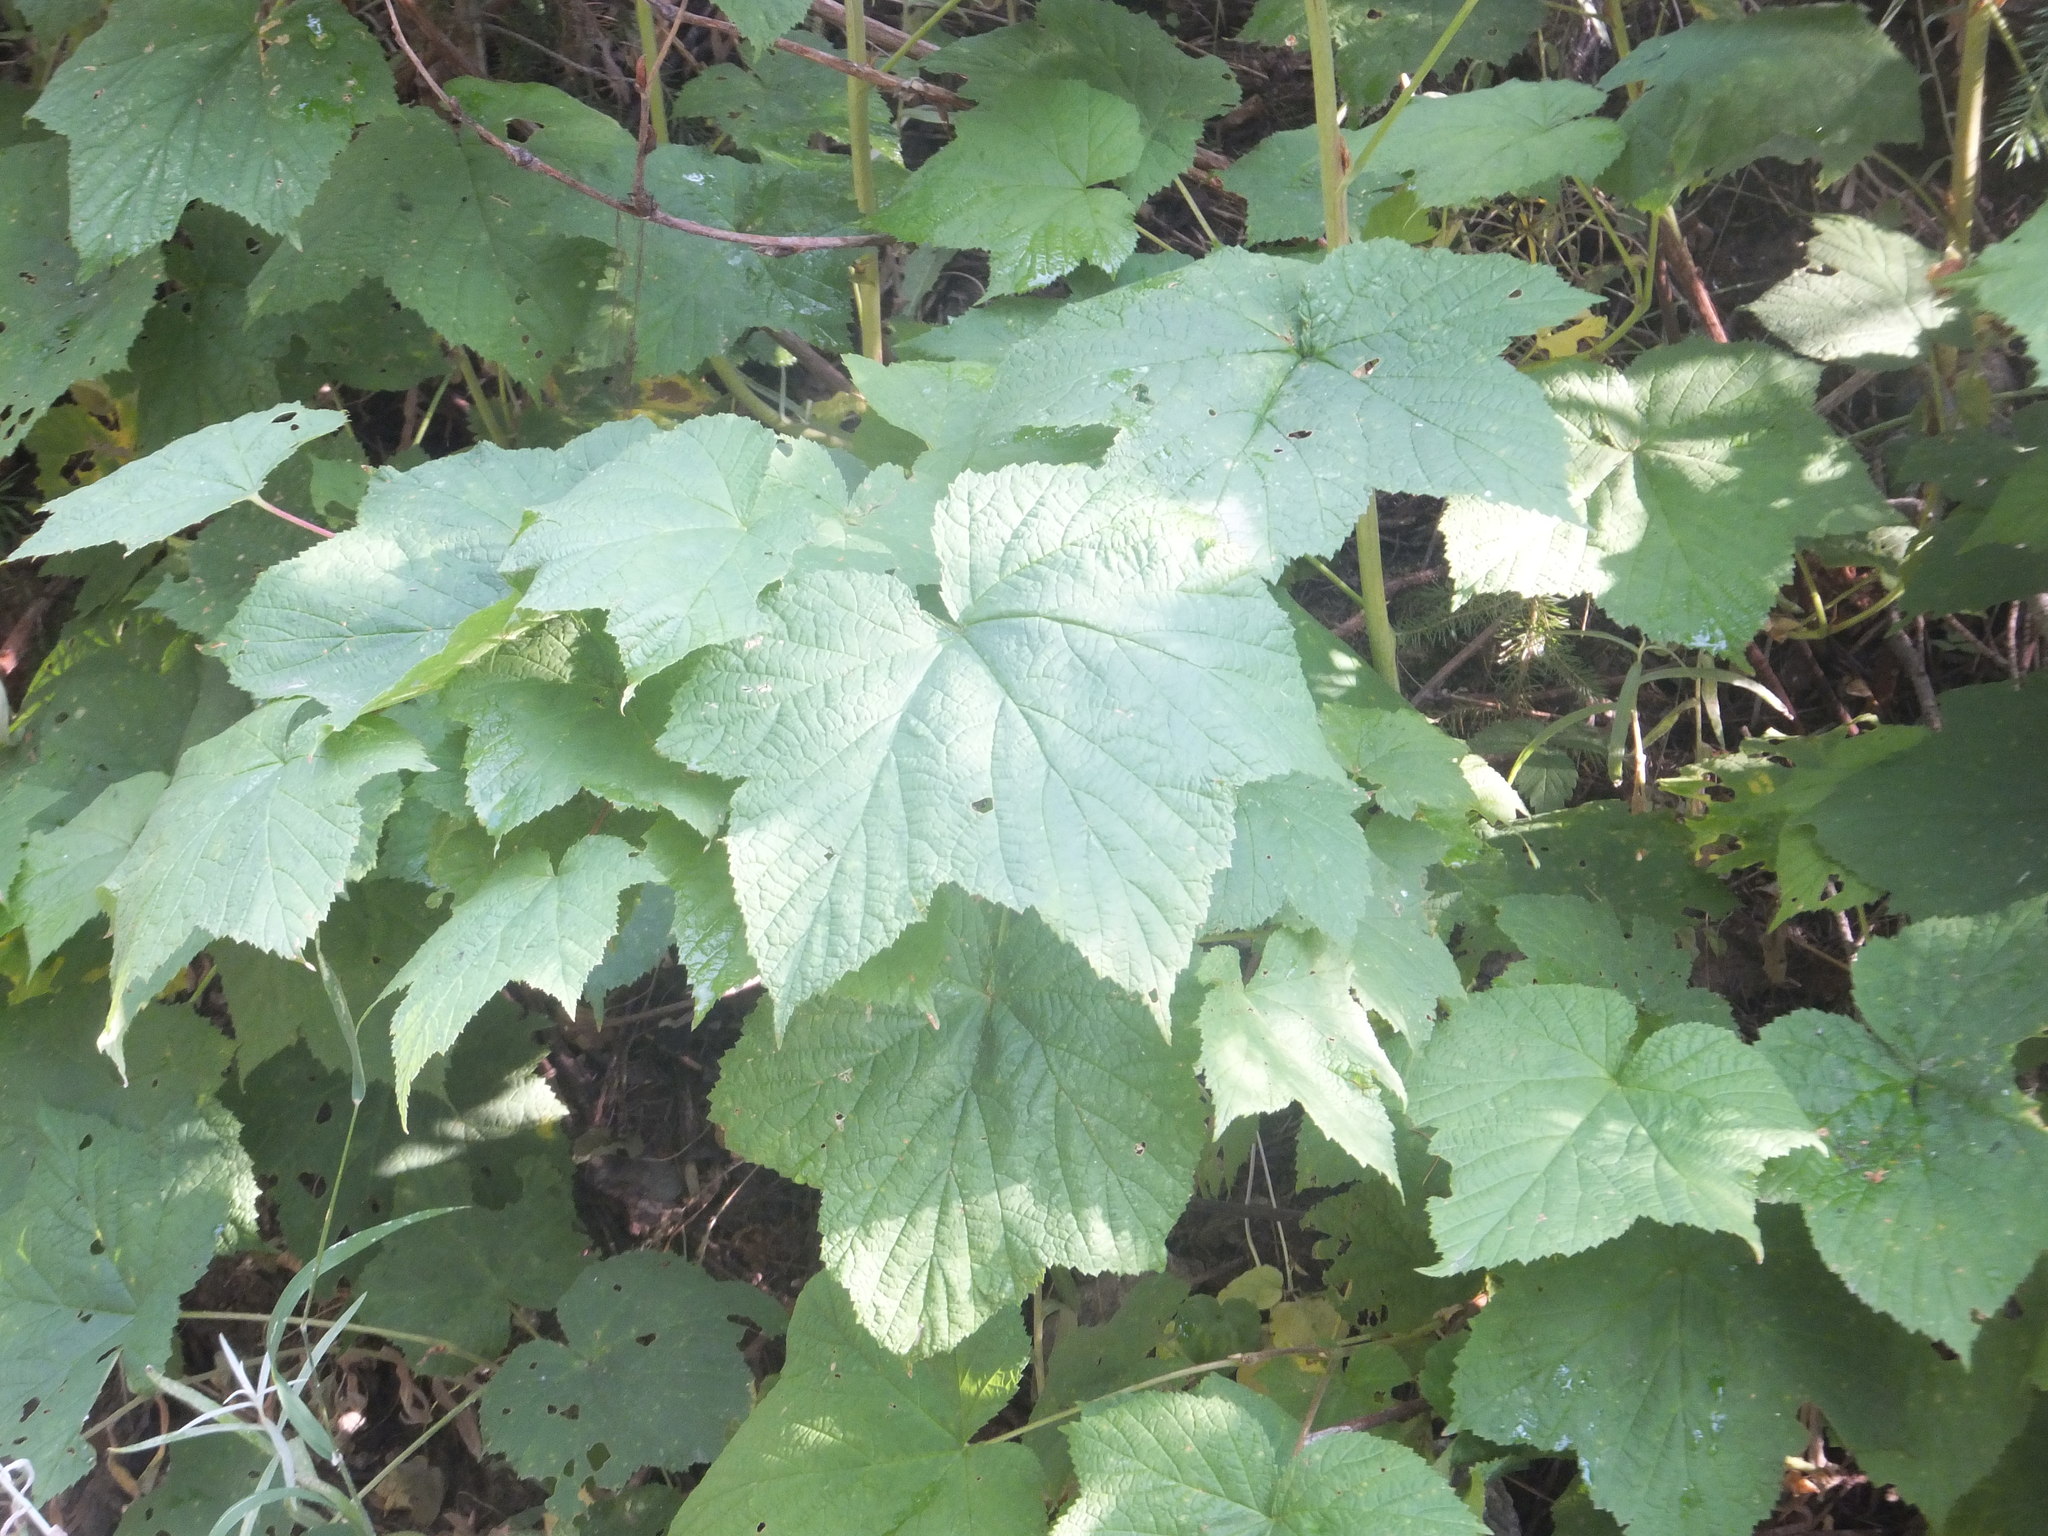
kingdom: Plantae
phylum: Tracheophyta
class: Magnoliopsida
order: Rosales
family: Rosaceae
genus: Rubus
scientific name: Rubus parviflorus
